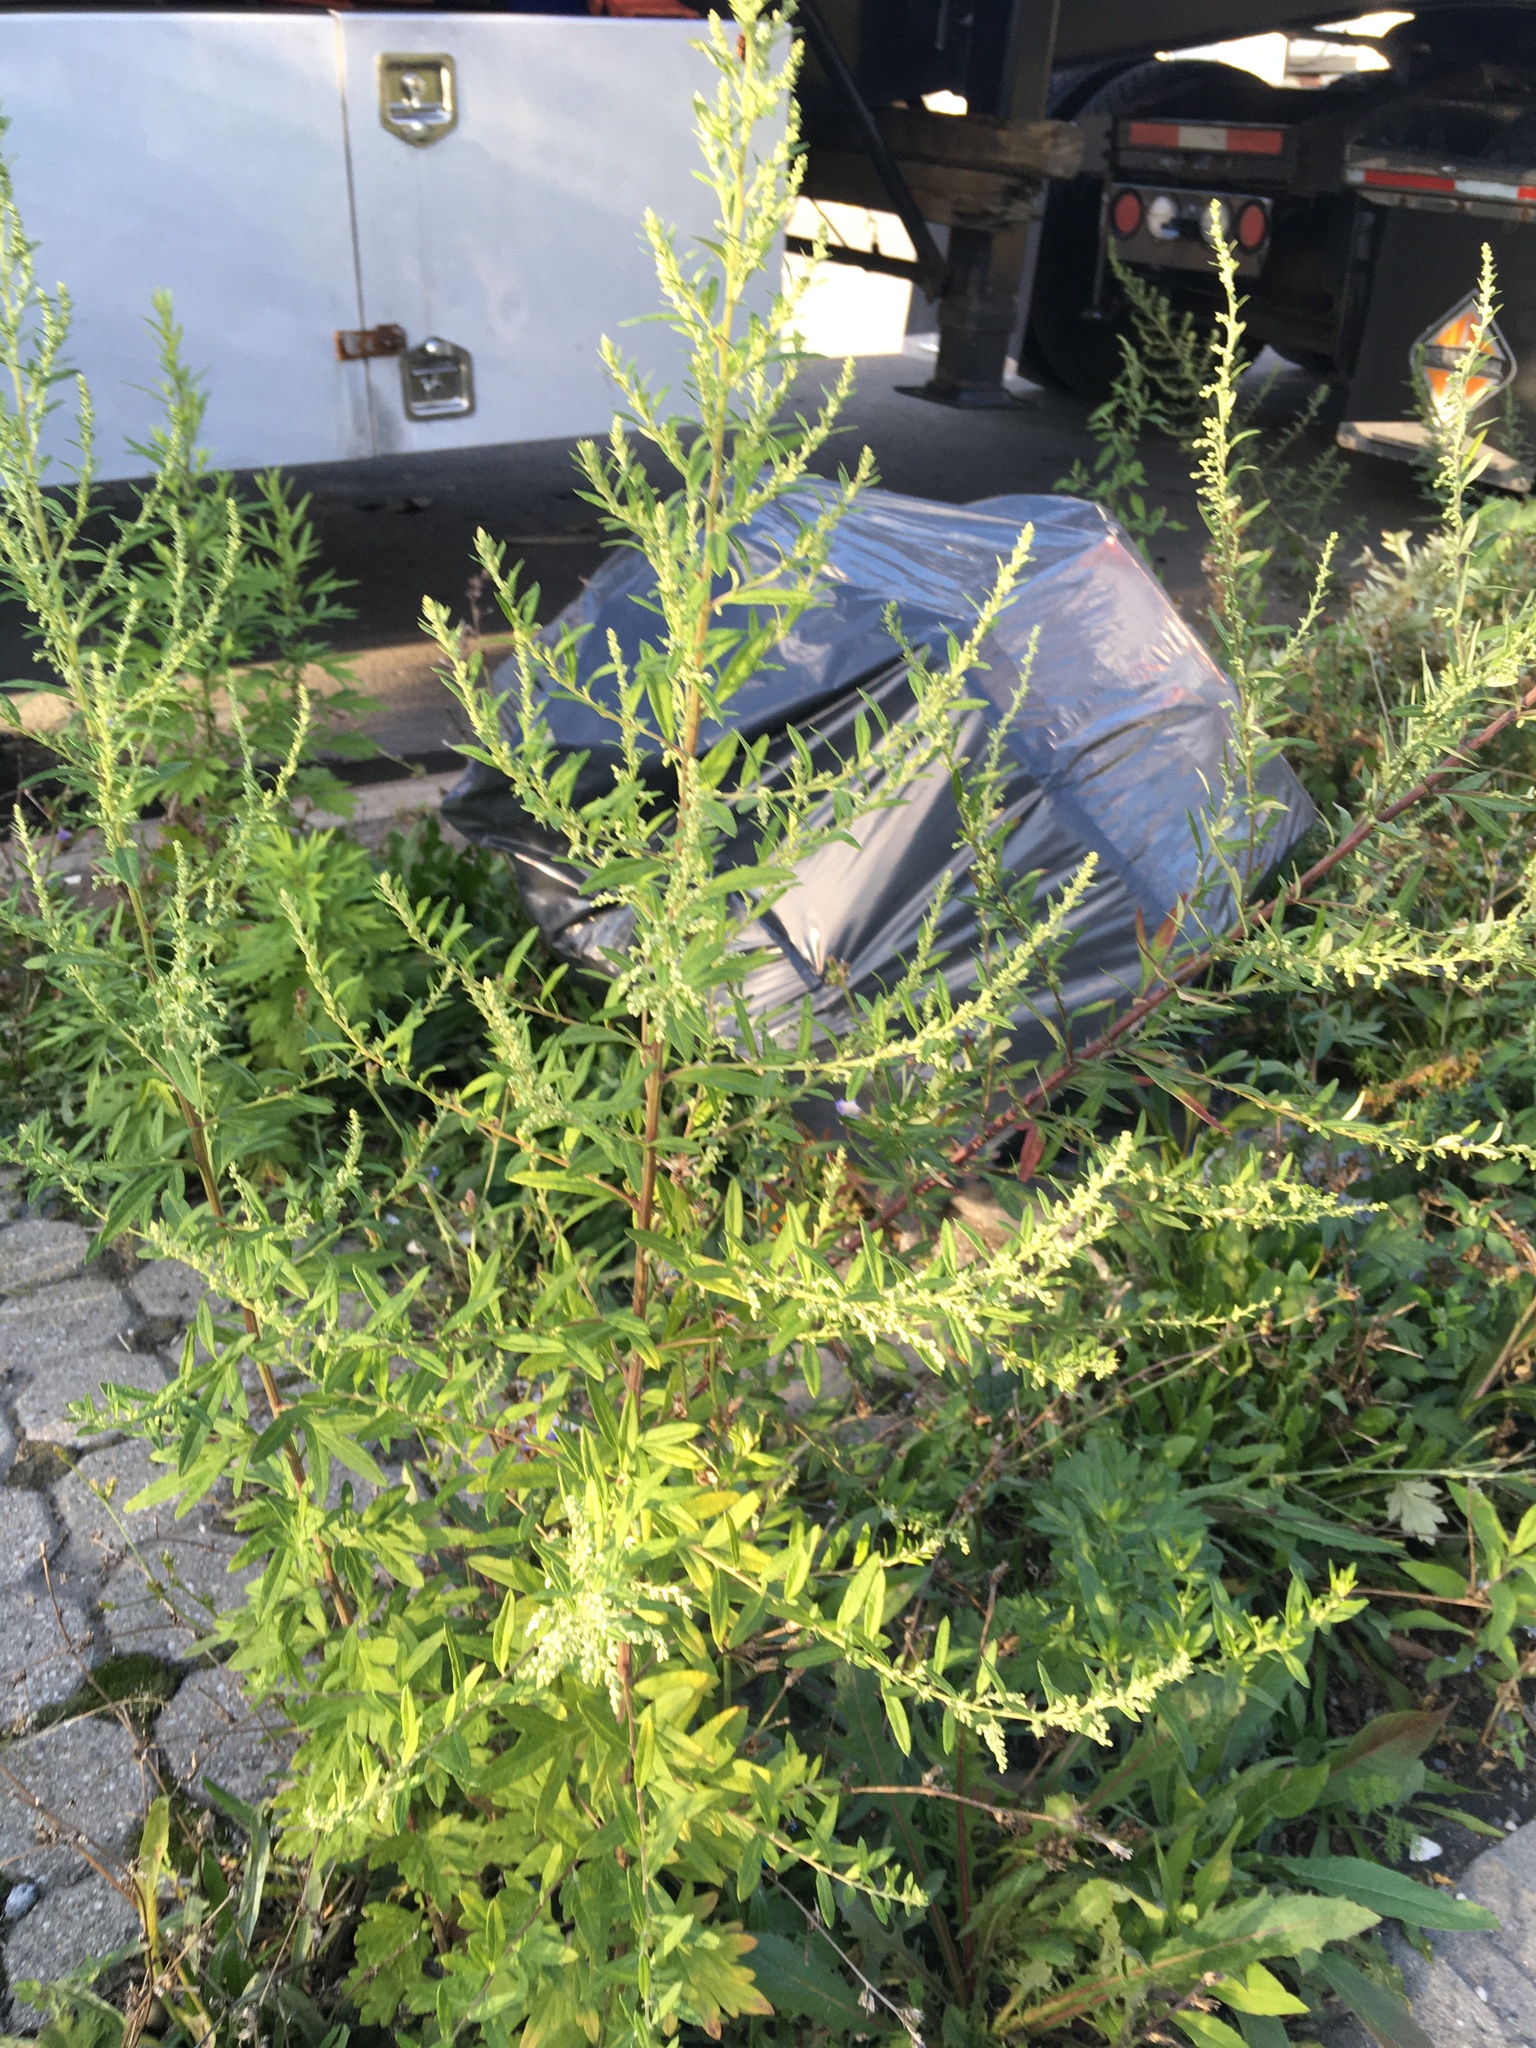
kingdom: Plantae
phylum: Tracheophyta
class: Magnoliopsida
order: Asterales
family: Asteraceae
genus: Artemisia
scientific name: Artemisia vulgaris
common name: Mugwort
